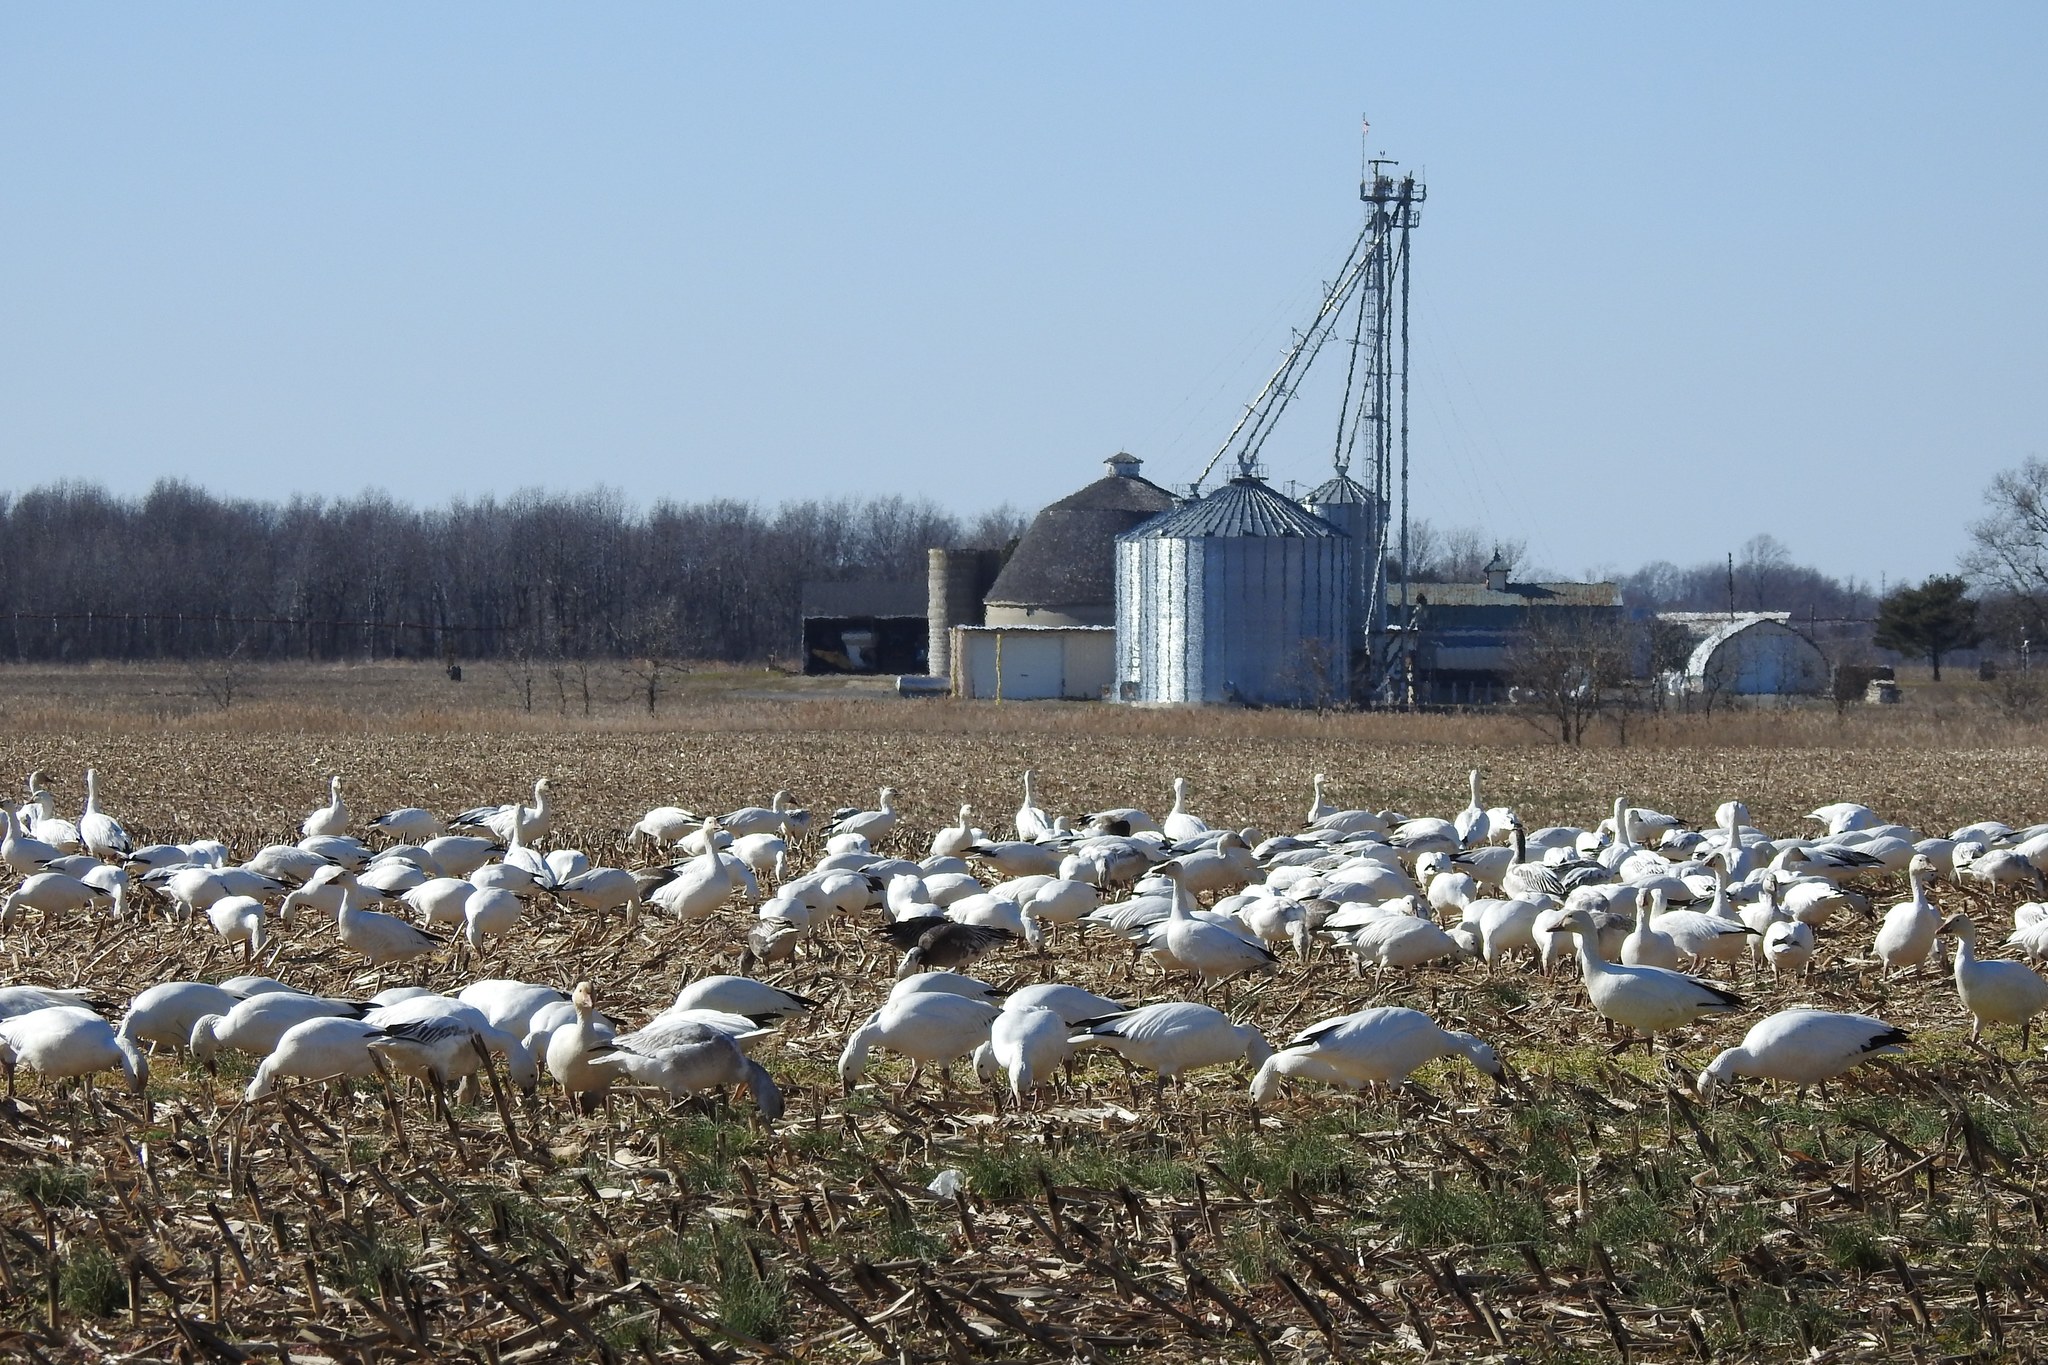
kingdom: Animalia
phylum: Chordata
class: Aves
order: Anseriformes
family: Anatidae
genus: Anser
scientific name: Anser caerulescens
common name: Snow goose
